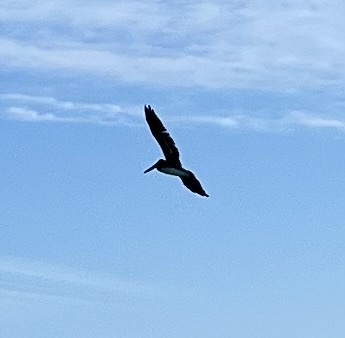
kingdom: Animalia
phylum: Chordata
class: Aves
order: Pelecaniformes
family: Pelecanidae
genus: Pelecanus
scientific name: Pelecanus occidentalis
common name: Brown pelican
